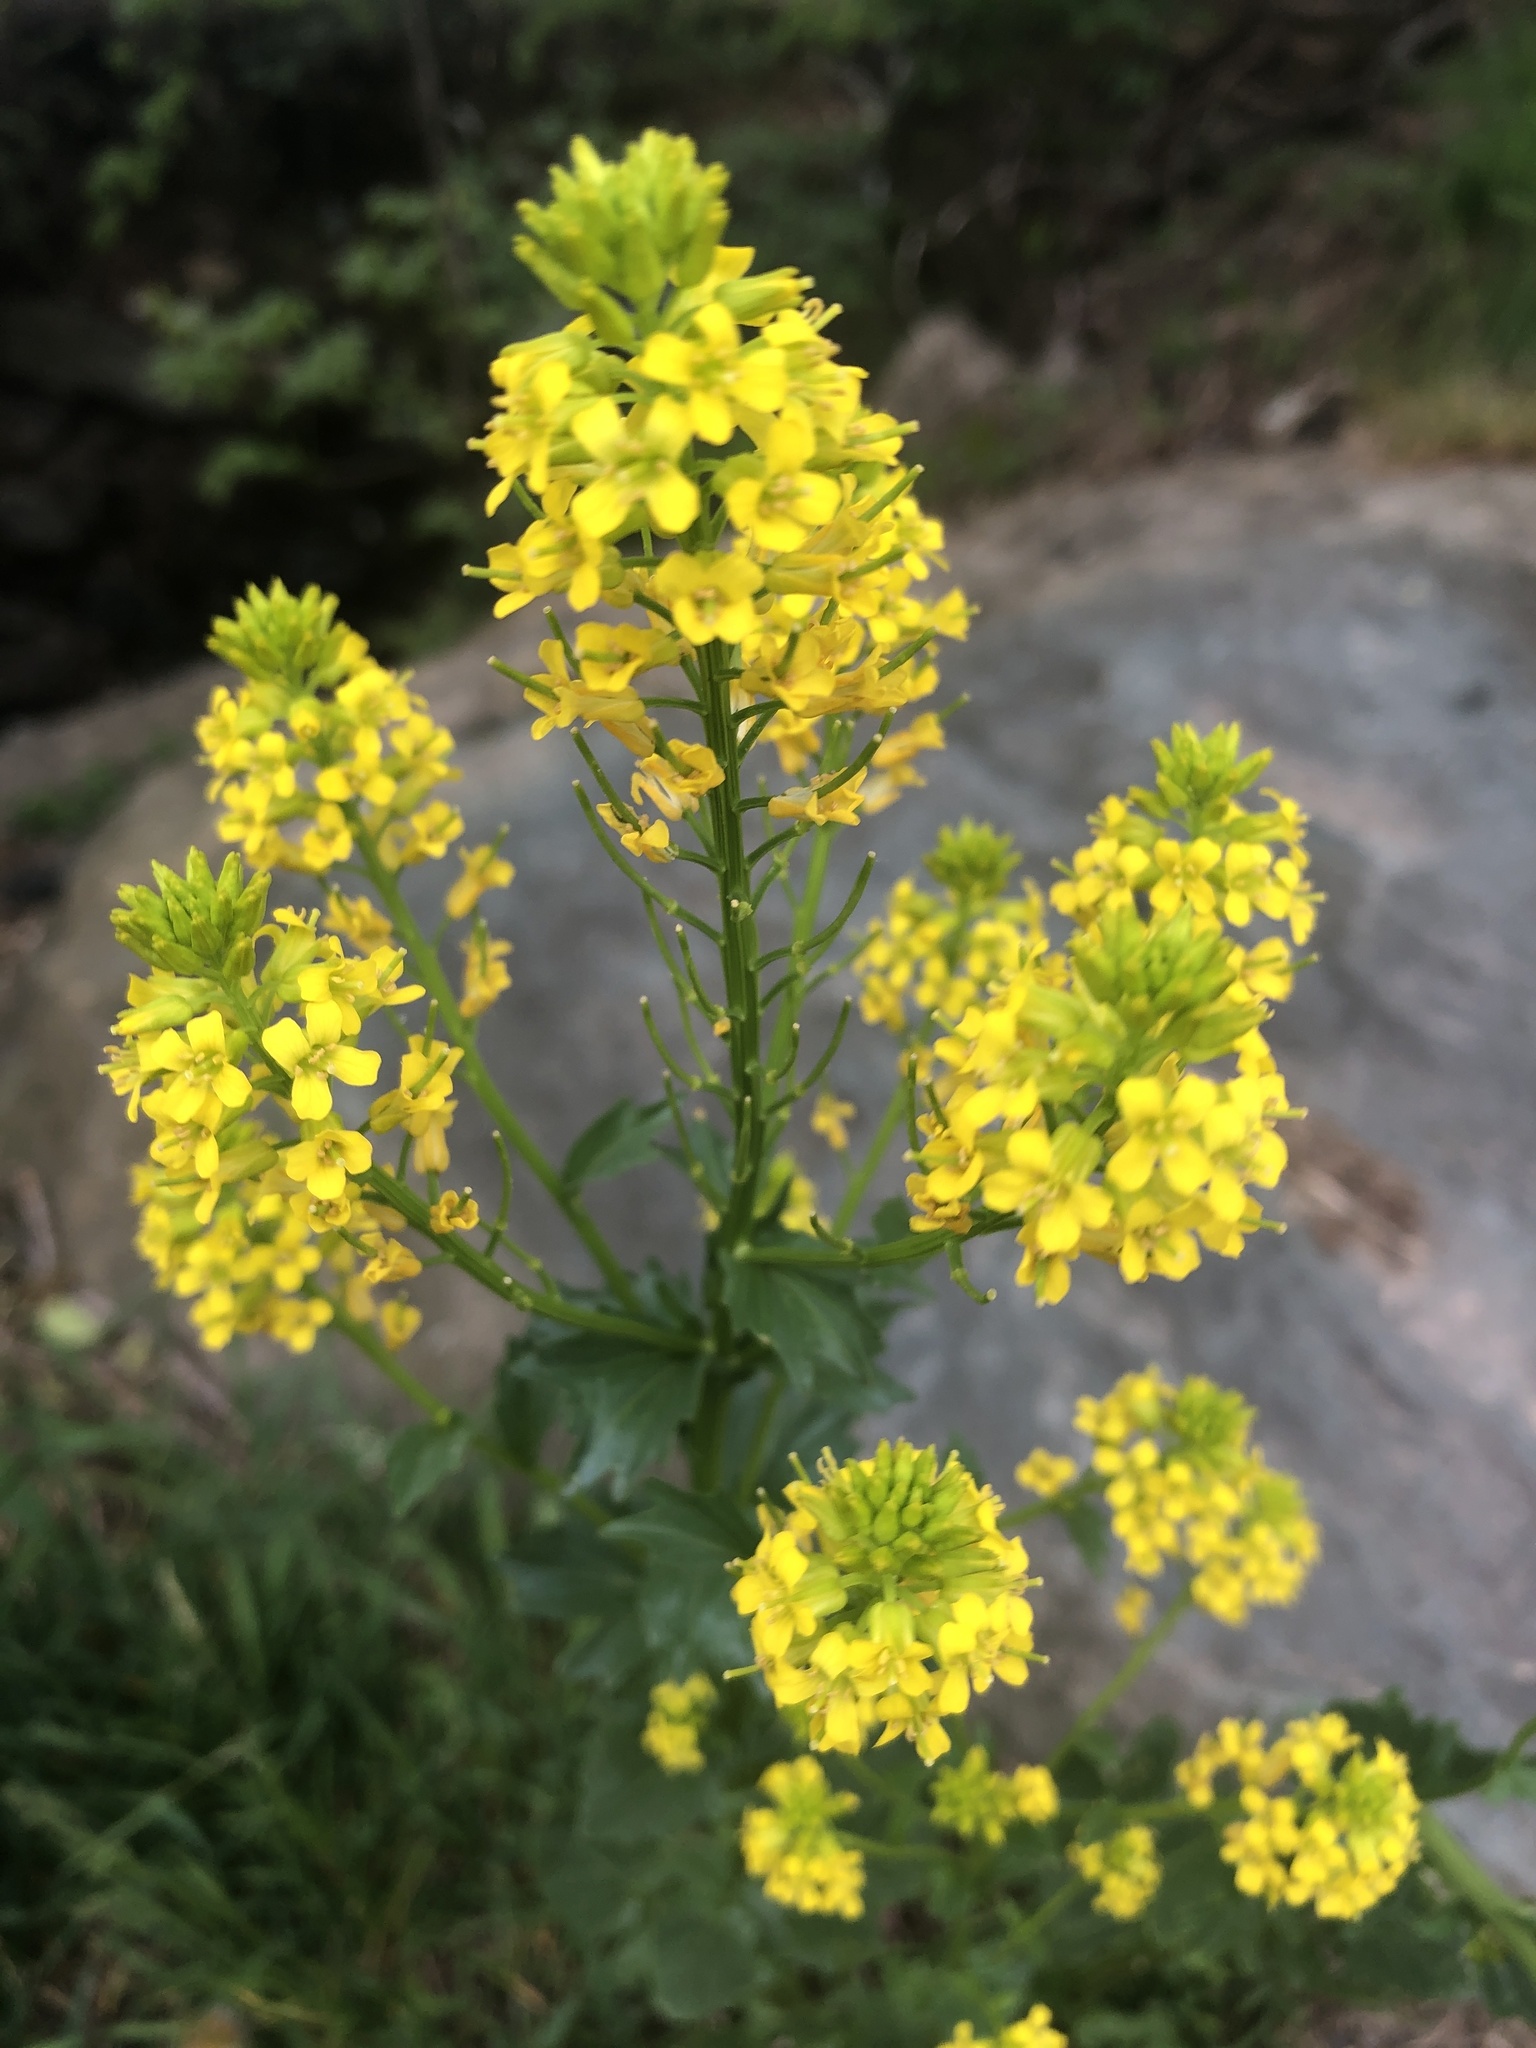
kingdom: Plantae
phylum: Tracheophyta
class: Magnoliopsida
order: Brassicales
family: Brassicaceae
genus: Barbarea
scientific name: Barbarea vulgaris
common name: Cressy-greens
